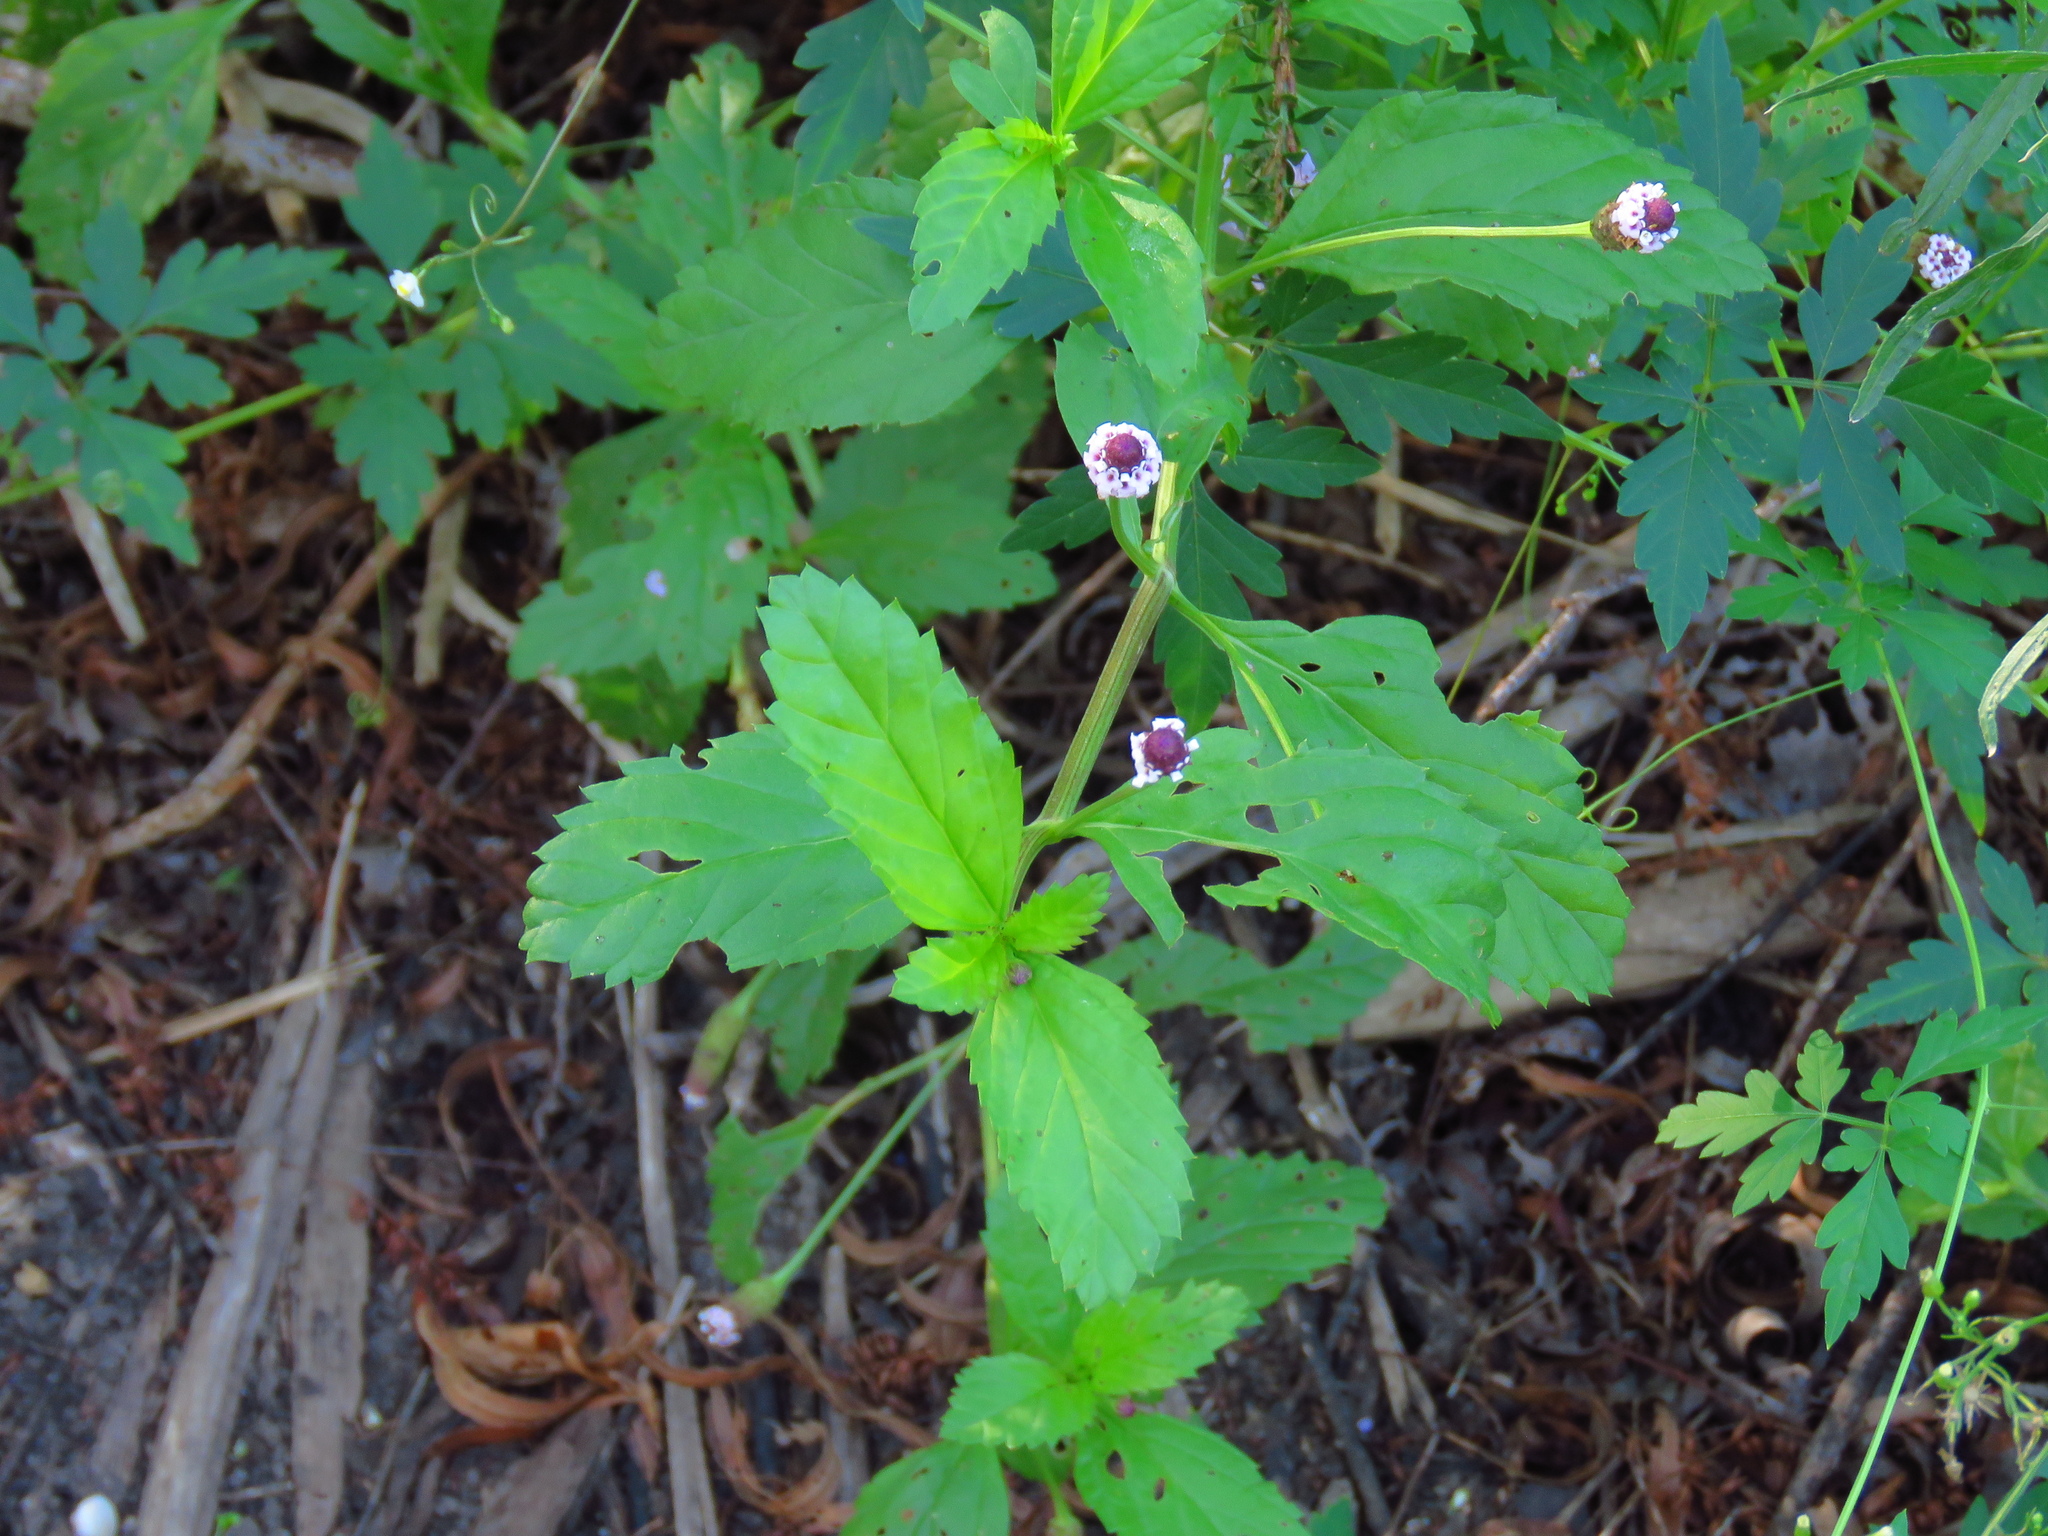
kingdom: Plantae
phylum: Tracheophyta
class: Magnoliopsida
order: Lamiales
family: Verbenaceae
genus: Phyla
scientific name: Phyla lanceolata
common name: Northern fogfruit
